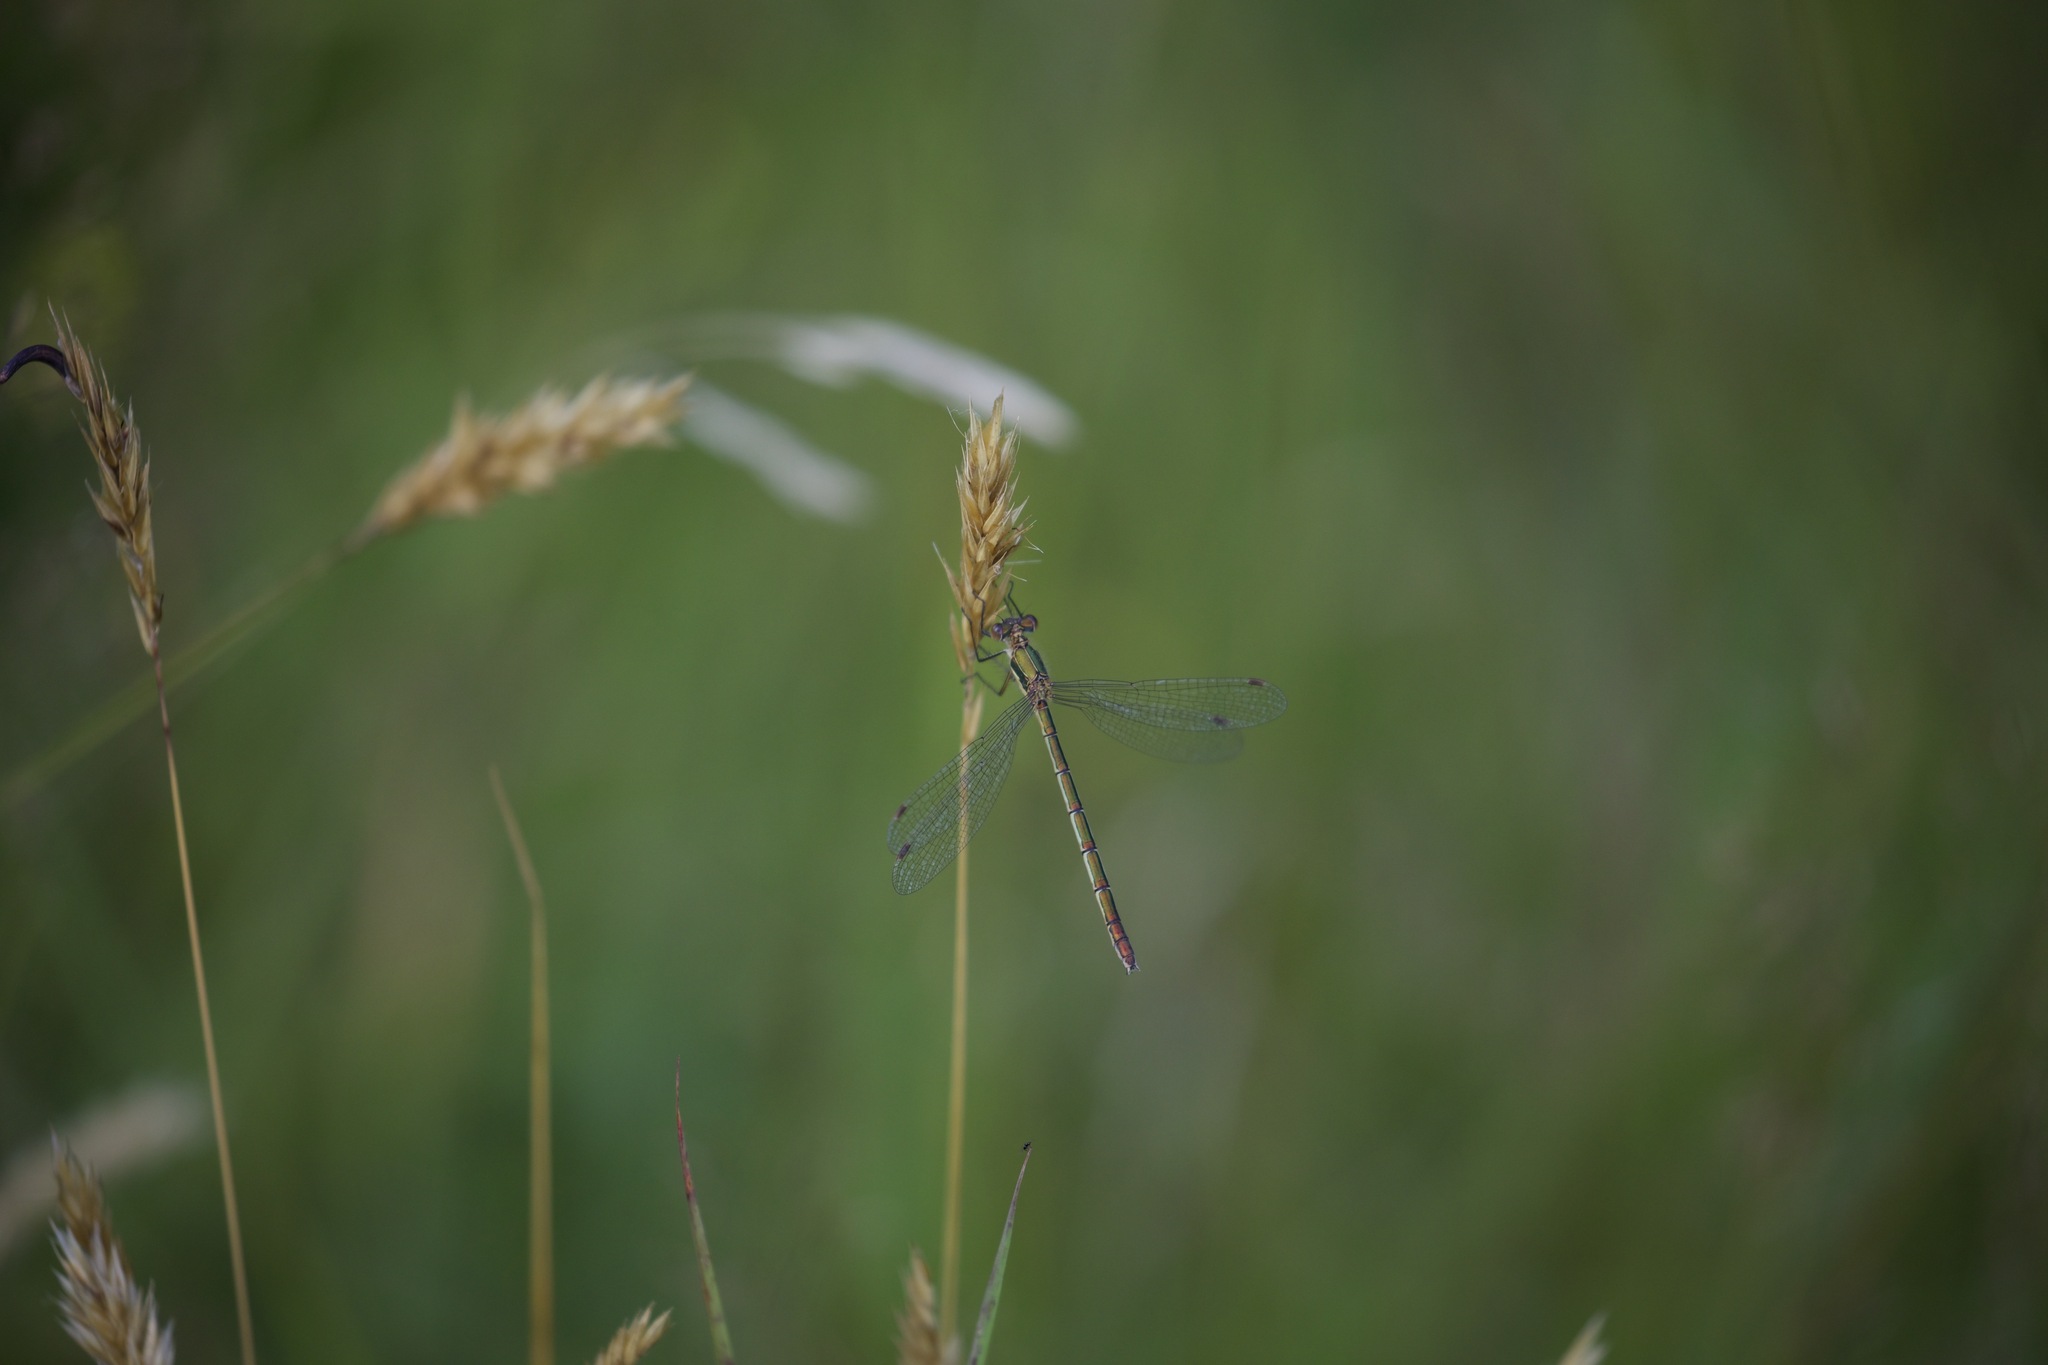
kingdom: Animalia
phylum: Arthropoda
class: Insecta
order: Odonata
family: Lestidae
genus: Lestes
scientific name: Lestes sponsa
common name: Common spreadwing
